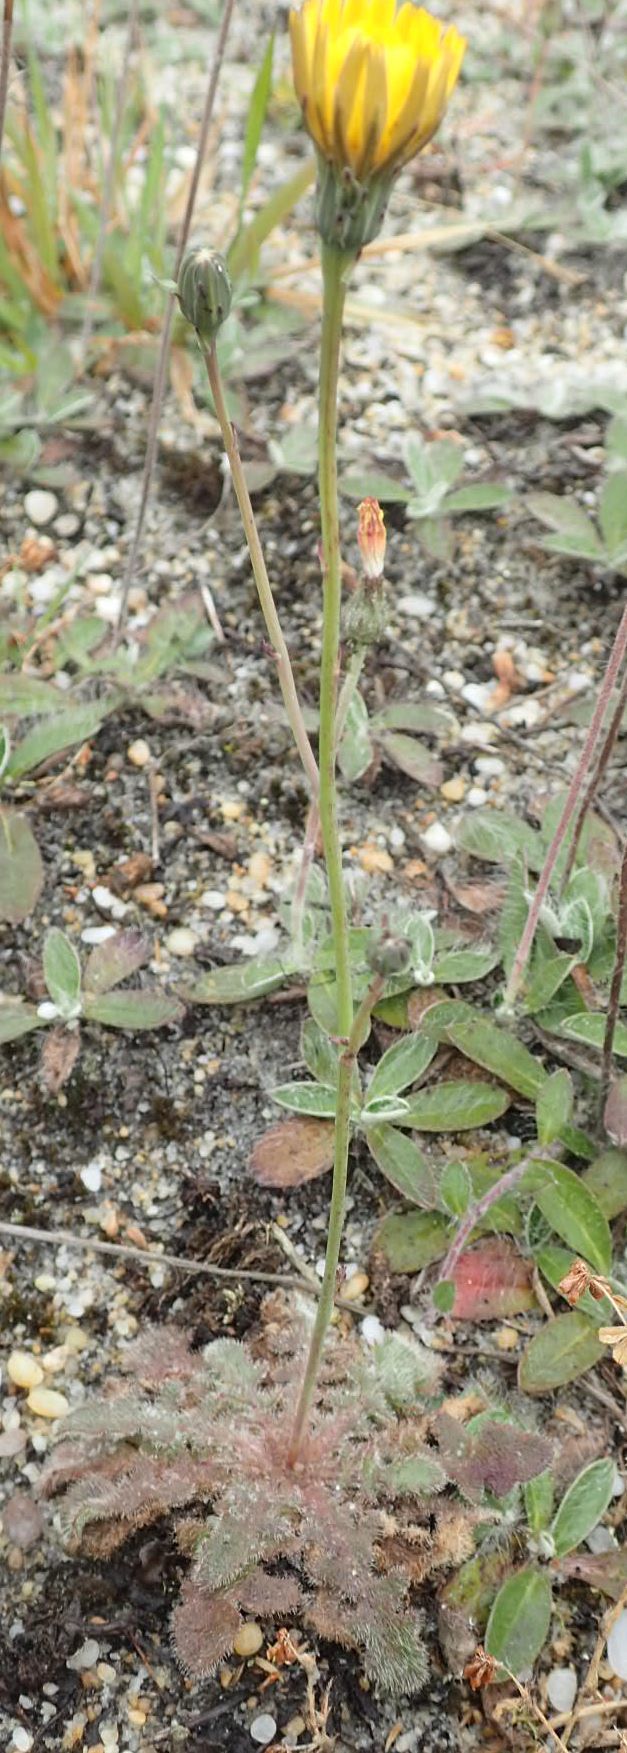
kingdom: Plantae
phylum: Tracheophyta
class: Magnoliopsida
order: Asterales
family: Asteraceae
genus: Hypochaeris
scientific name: Hypochaeris radicata
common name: Flatweed
